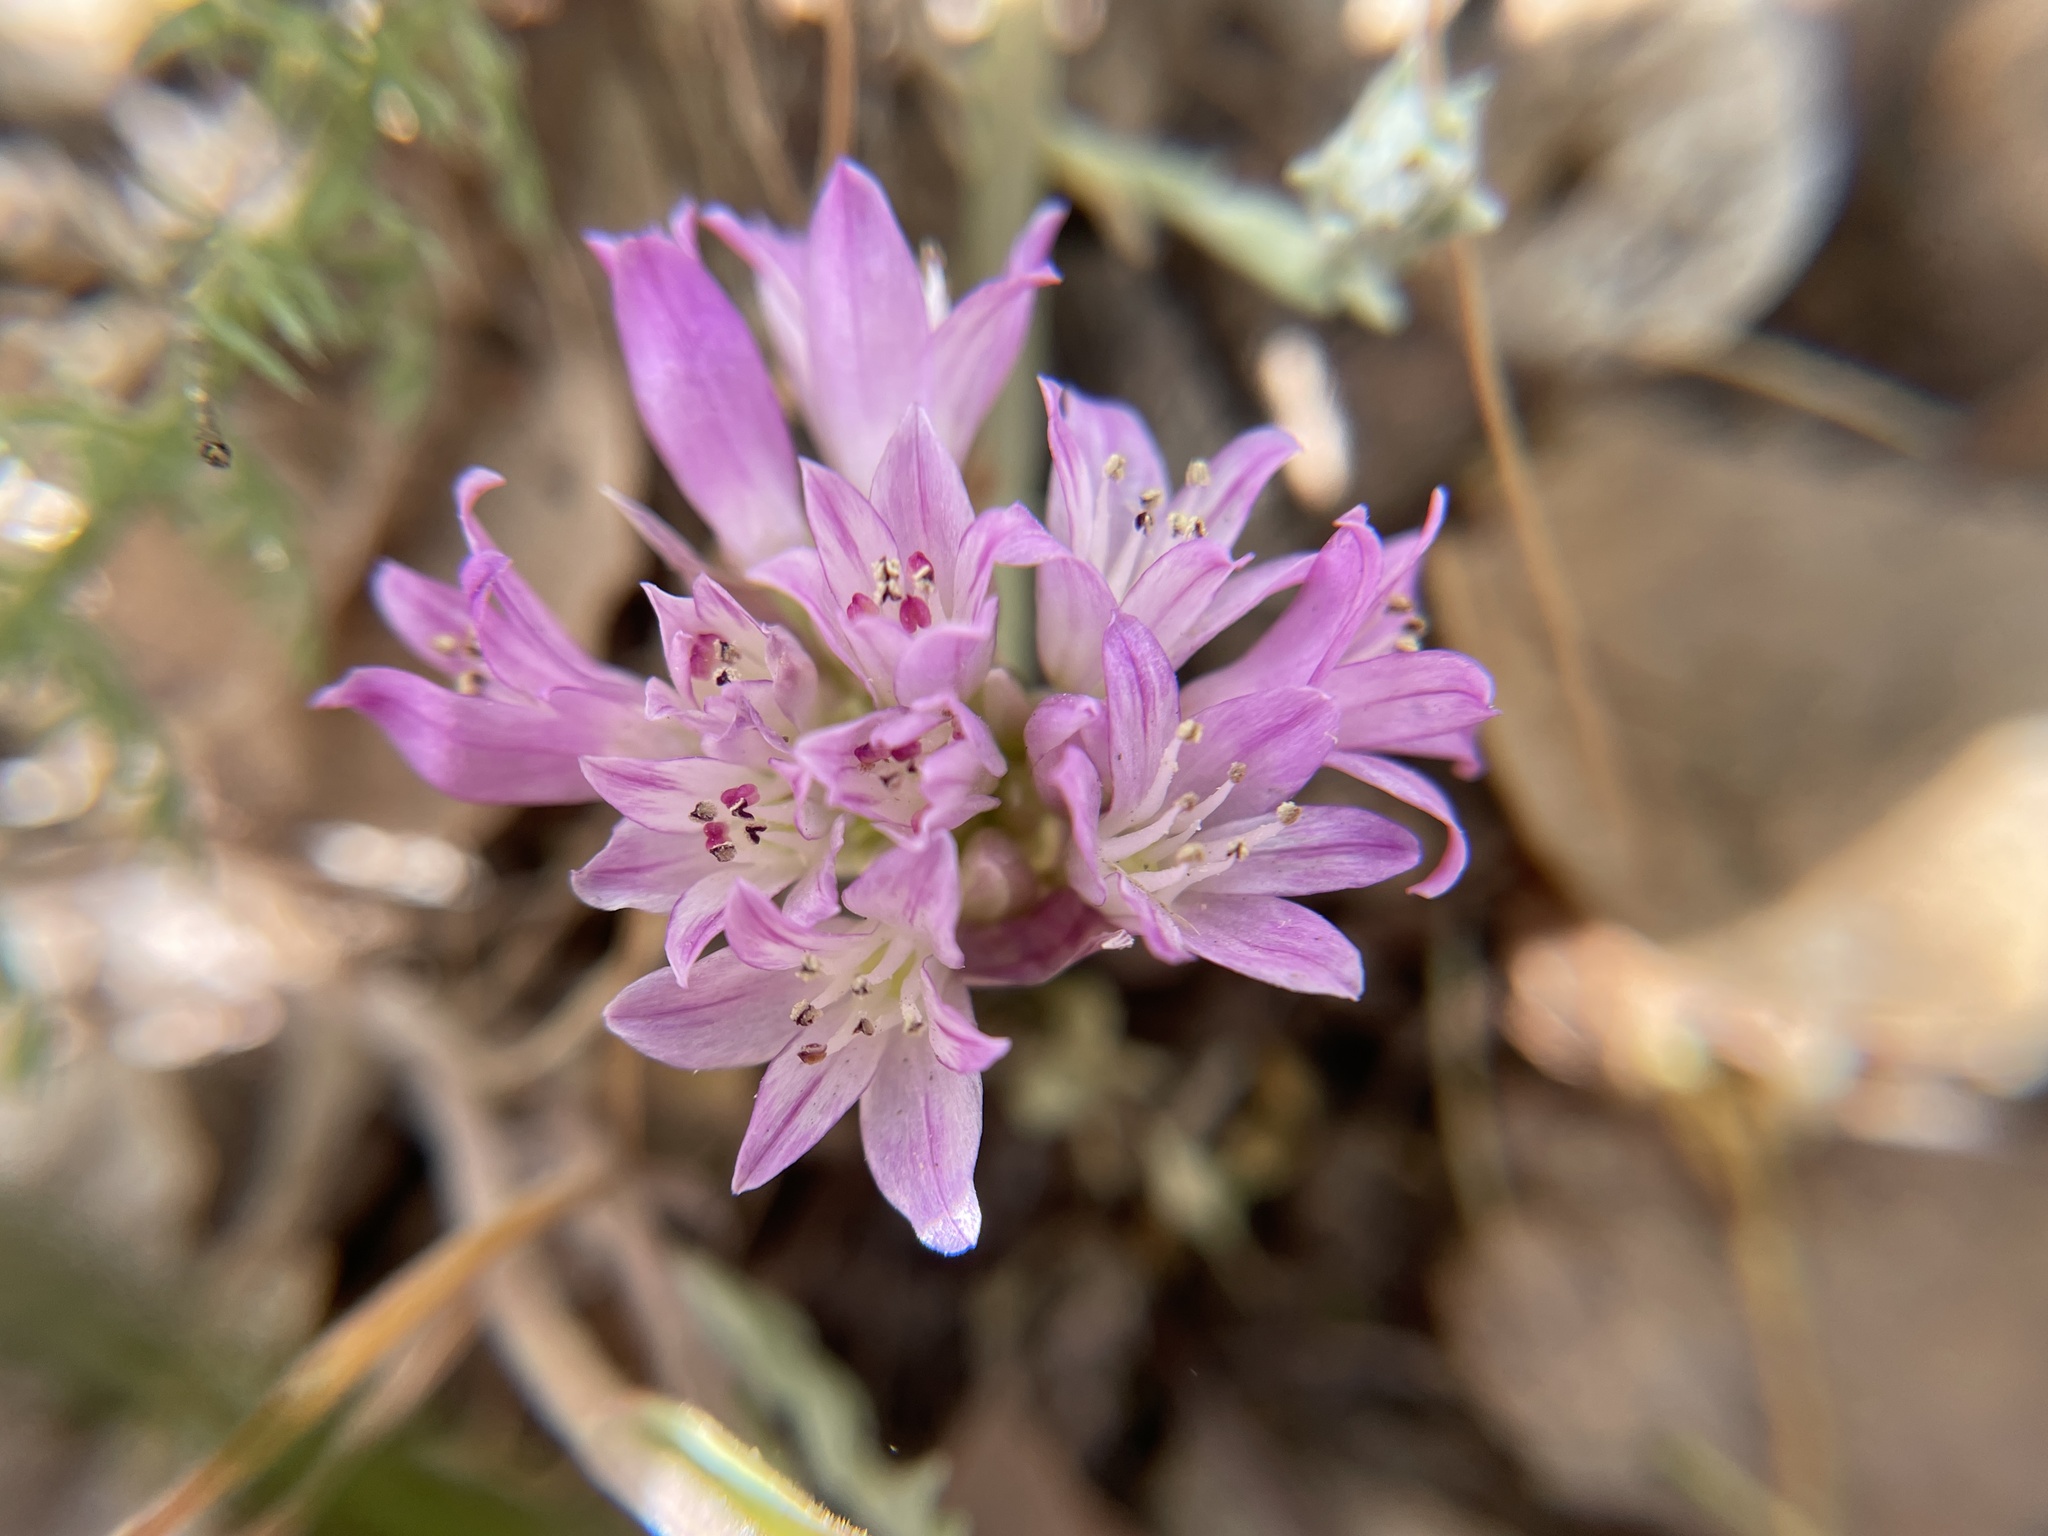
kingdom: Plantae
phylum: Tracheophyta
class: Liliopsida
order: Asparagales
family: Amaryllidaceae
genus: Allium
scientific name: Allium serra
